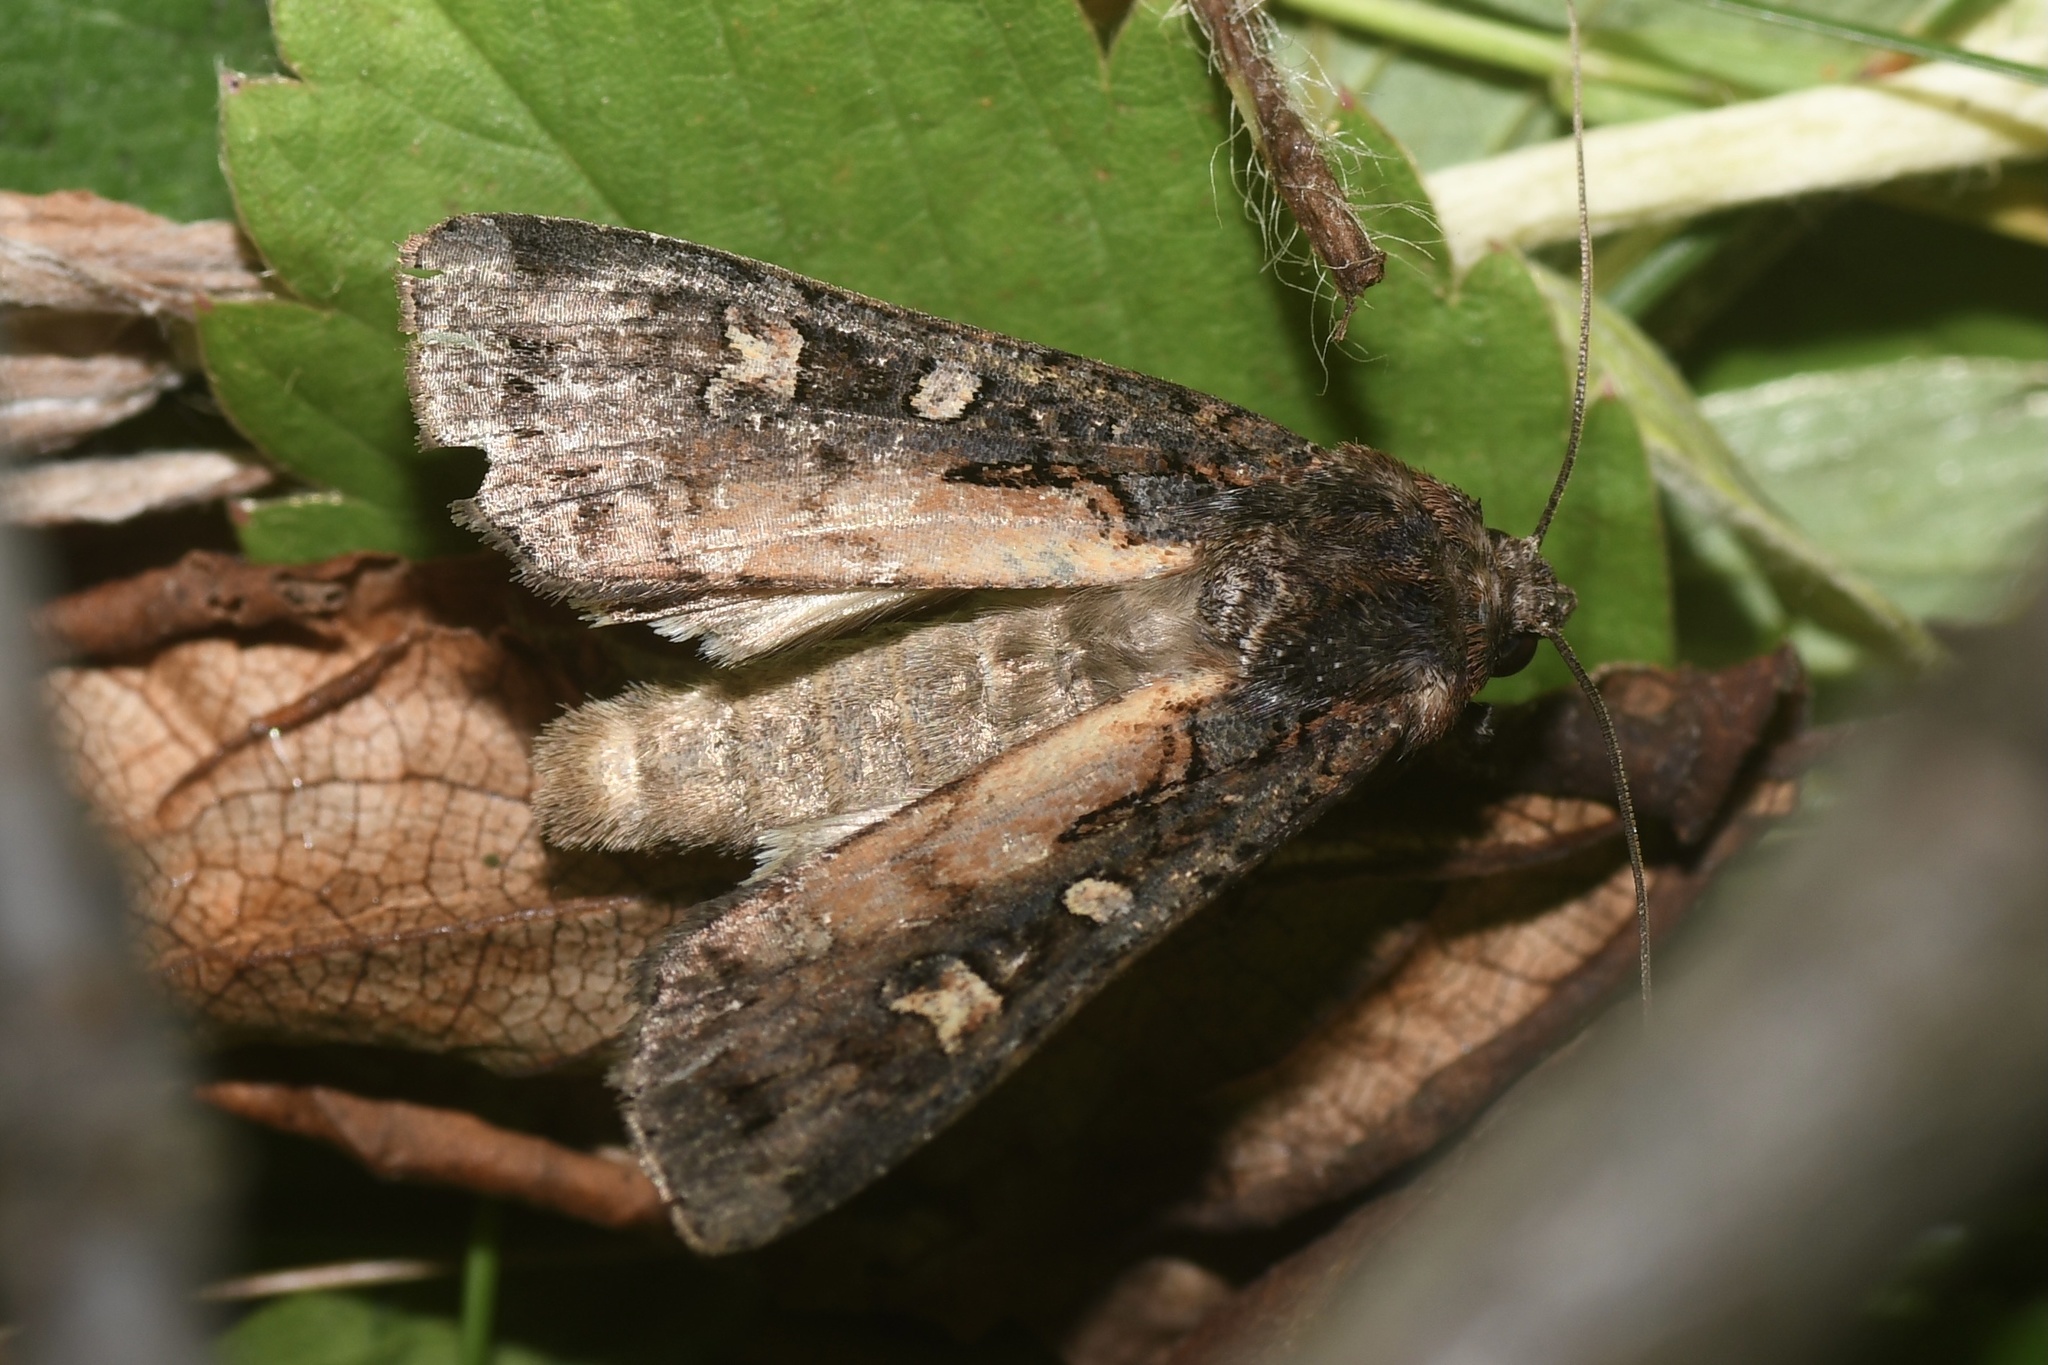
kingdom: Animalia
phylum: Arthropoda
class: Insecta
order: Lepidoptera
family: Noctuidae
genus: Actebia
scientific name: Actebia fennica
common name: Eversmann's rustic
